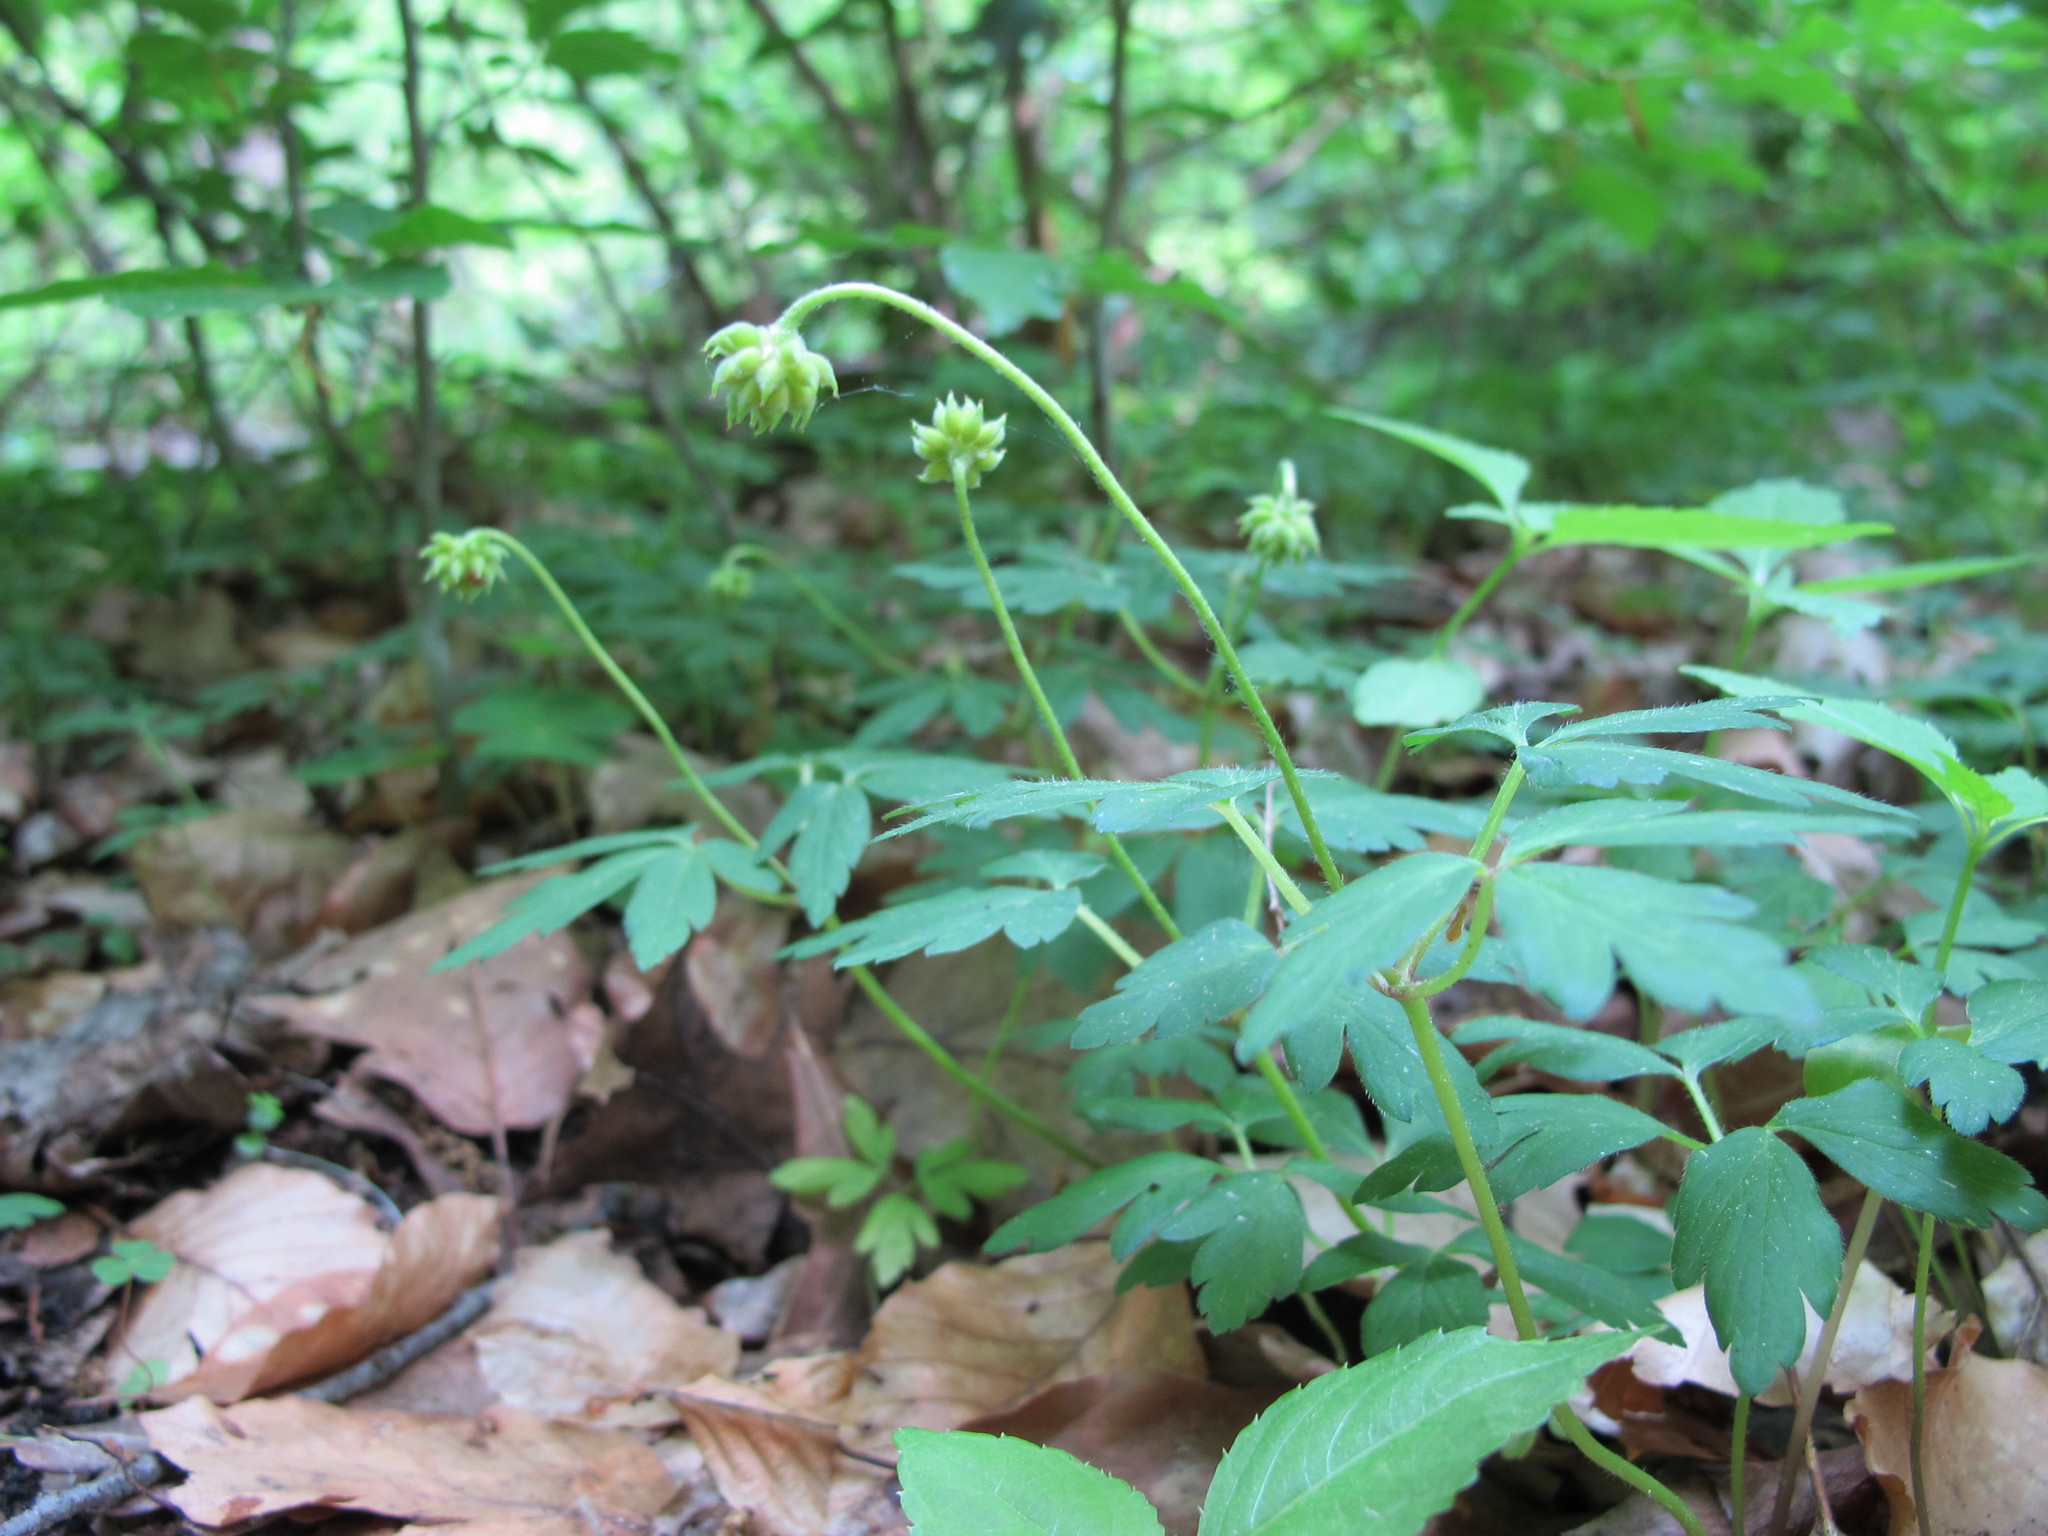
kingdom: Plantae
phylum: Tracheophyta
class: Magnoliopsida
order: Ranunculales
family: Ranunculaceae
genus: Anemone
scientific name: Anemone nemorosa
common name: Wood anemone
